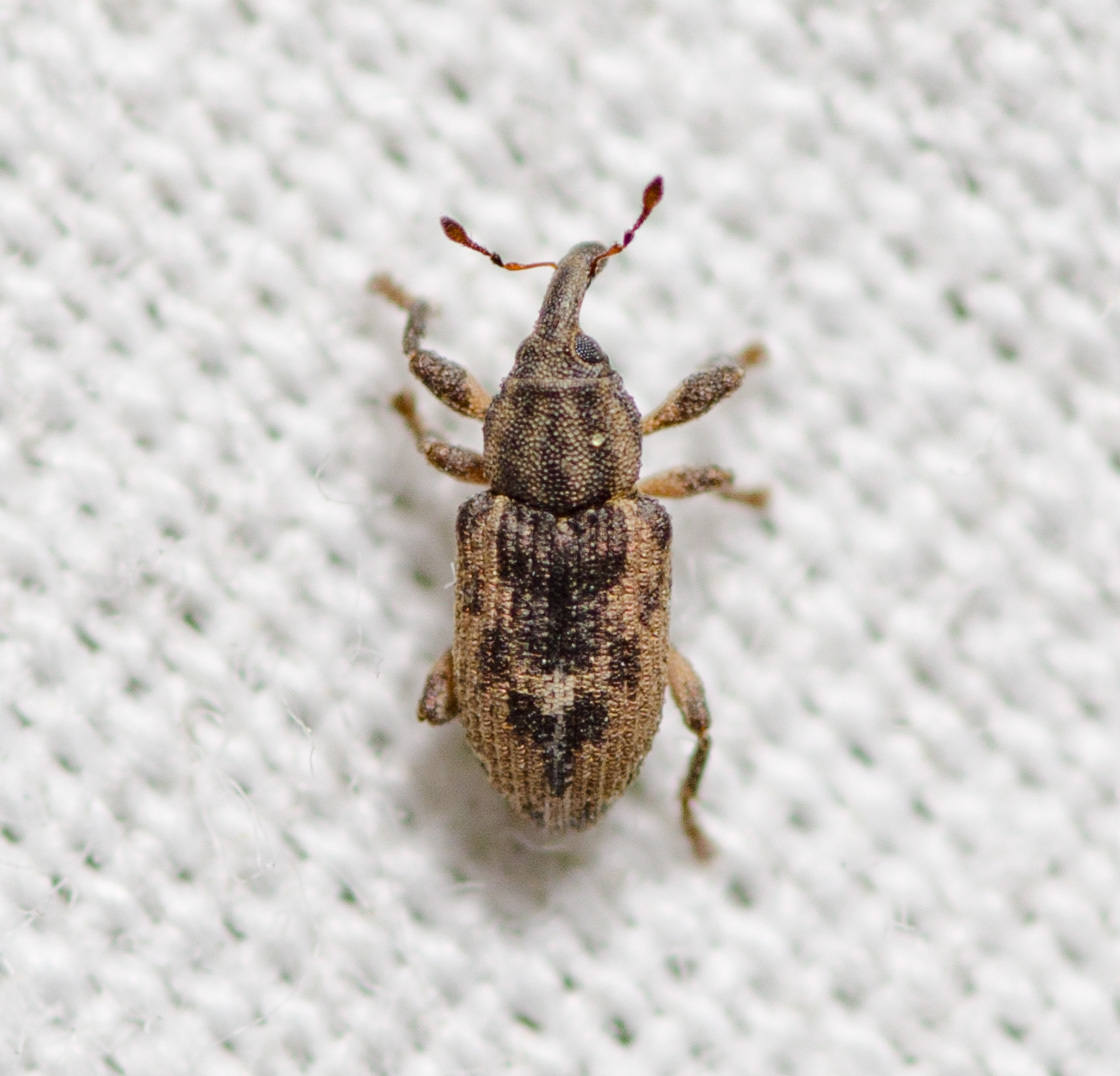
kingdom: Animalia
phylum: Arthropoda
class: Insecta
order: Coleoptera
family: Brachyceridae
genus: Endalus
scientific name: Endalus aeratus
